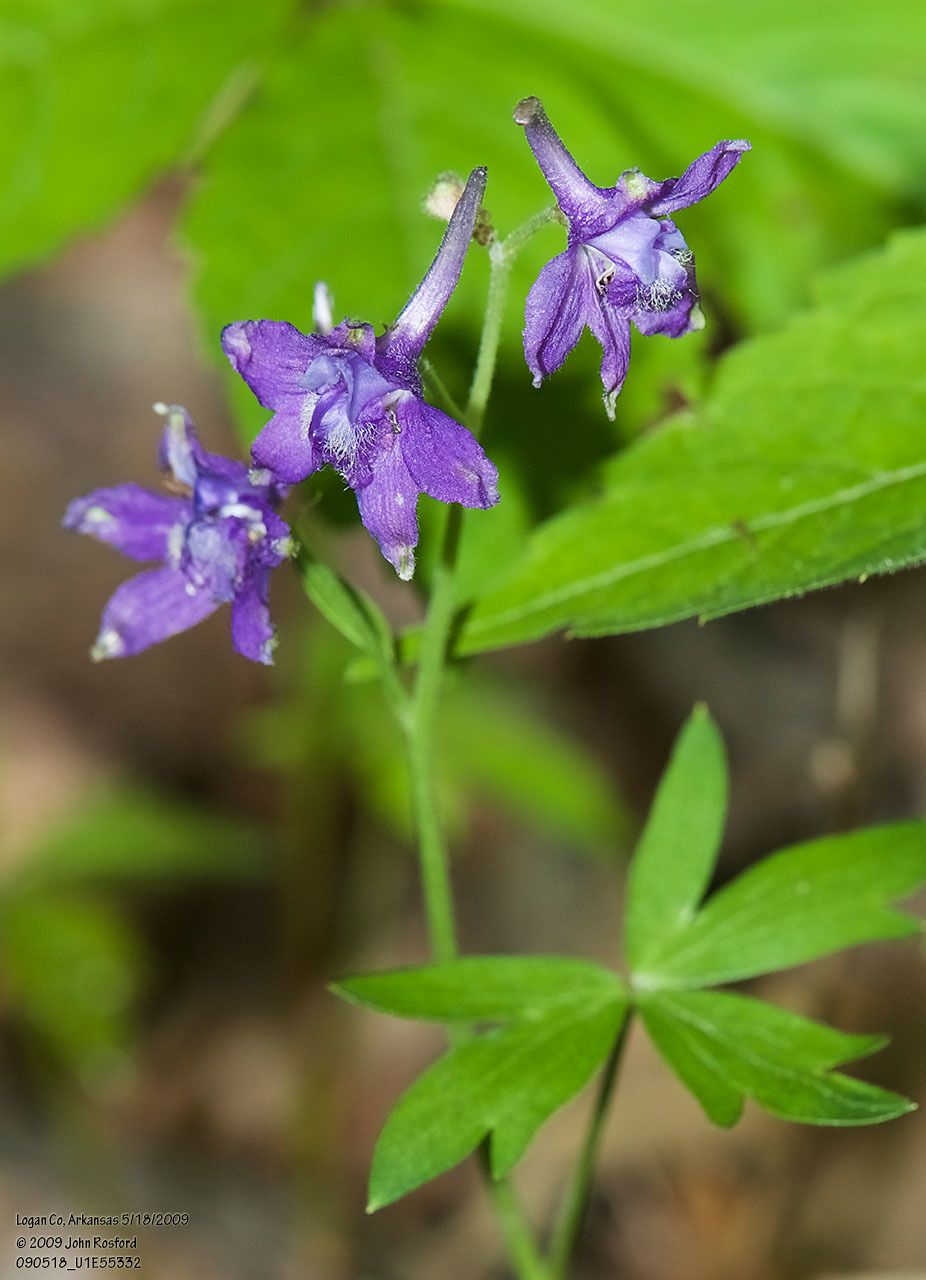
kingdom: Plantae
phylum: Tracheophyta
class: Magnoliopsida
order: Ranunculales
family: Ranunculaceae
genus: Delphinium
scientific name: Delphinium tricorne
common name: Dwarf larkspur
